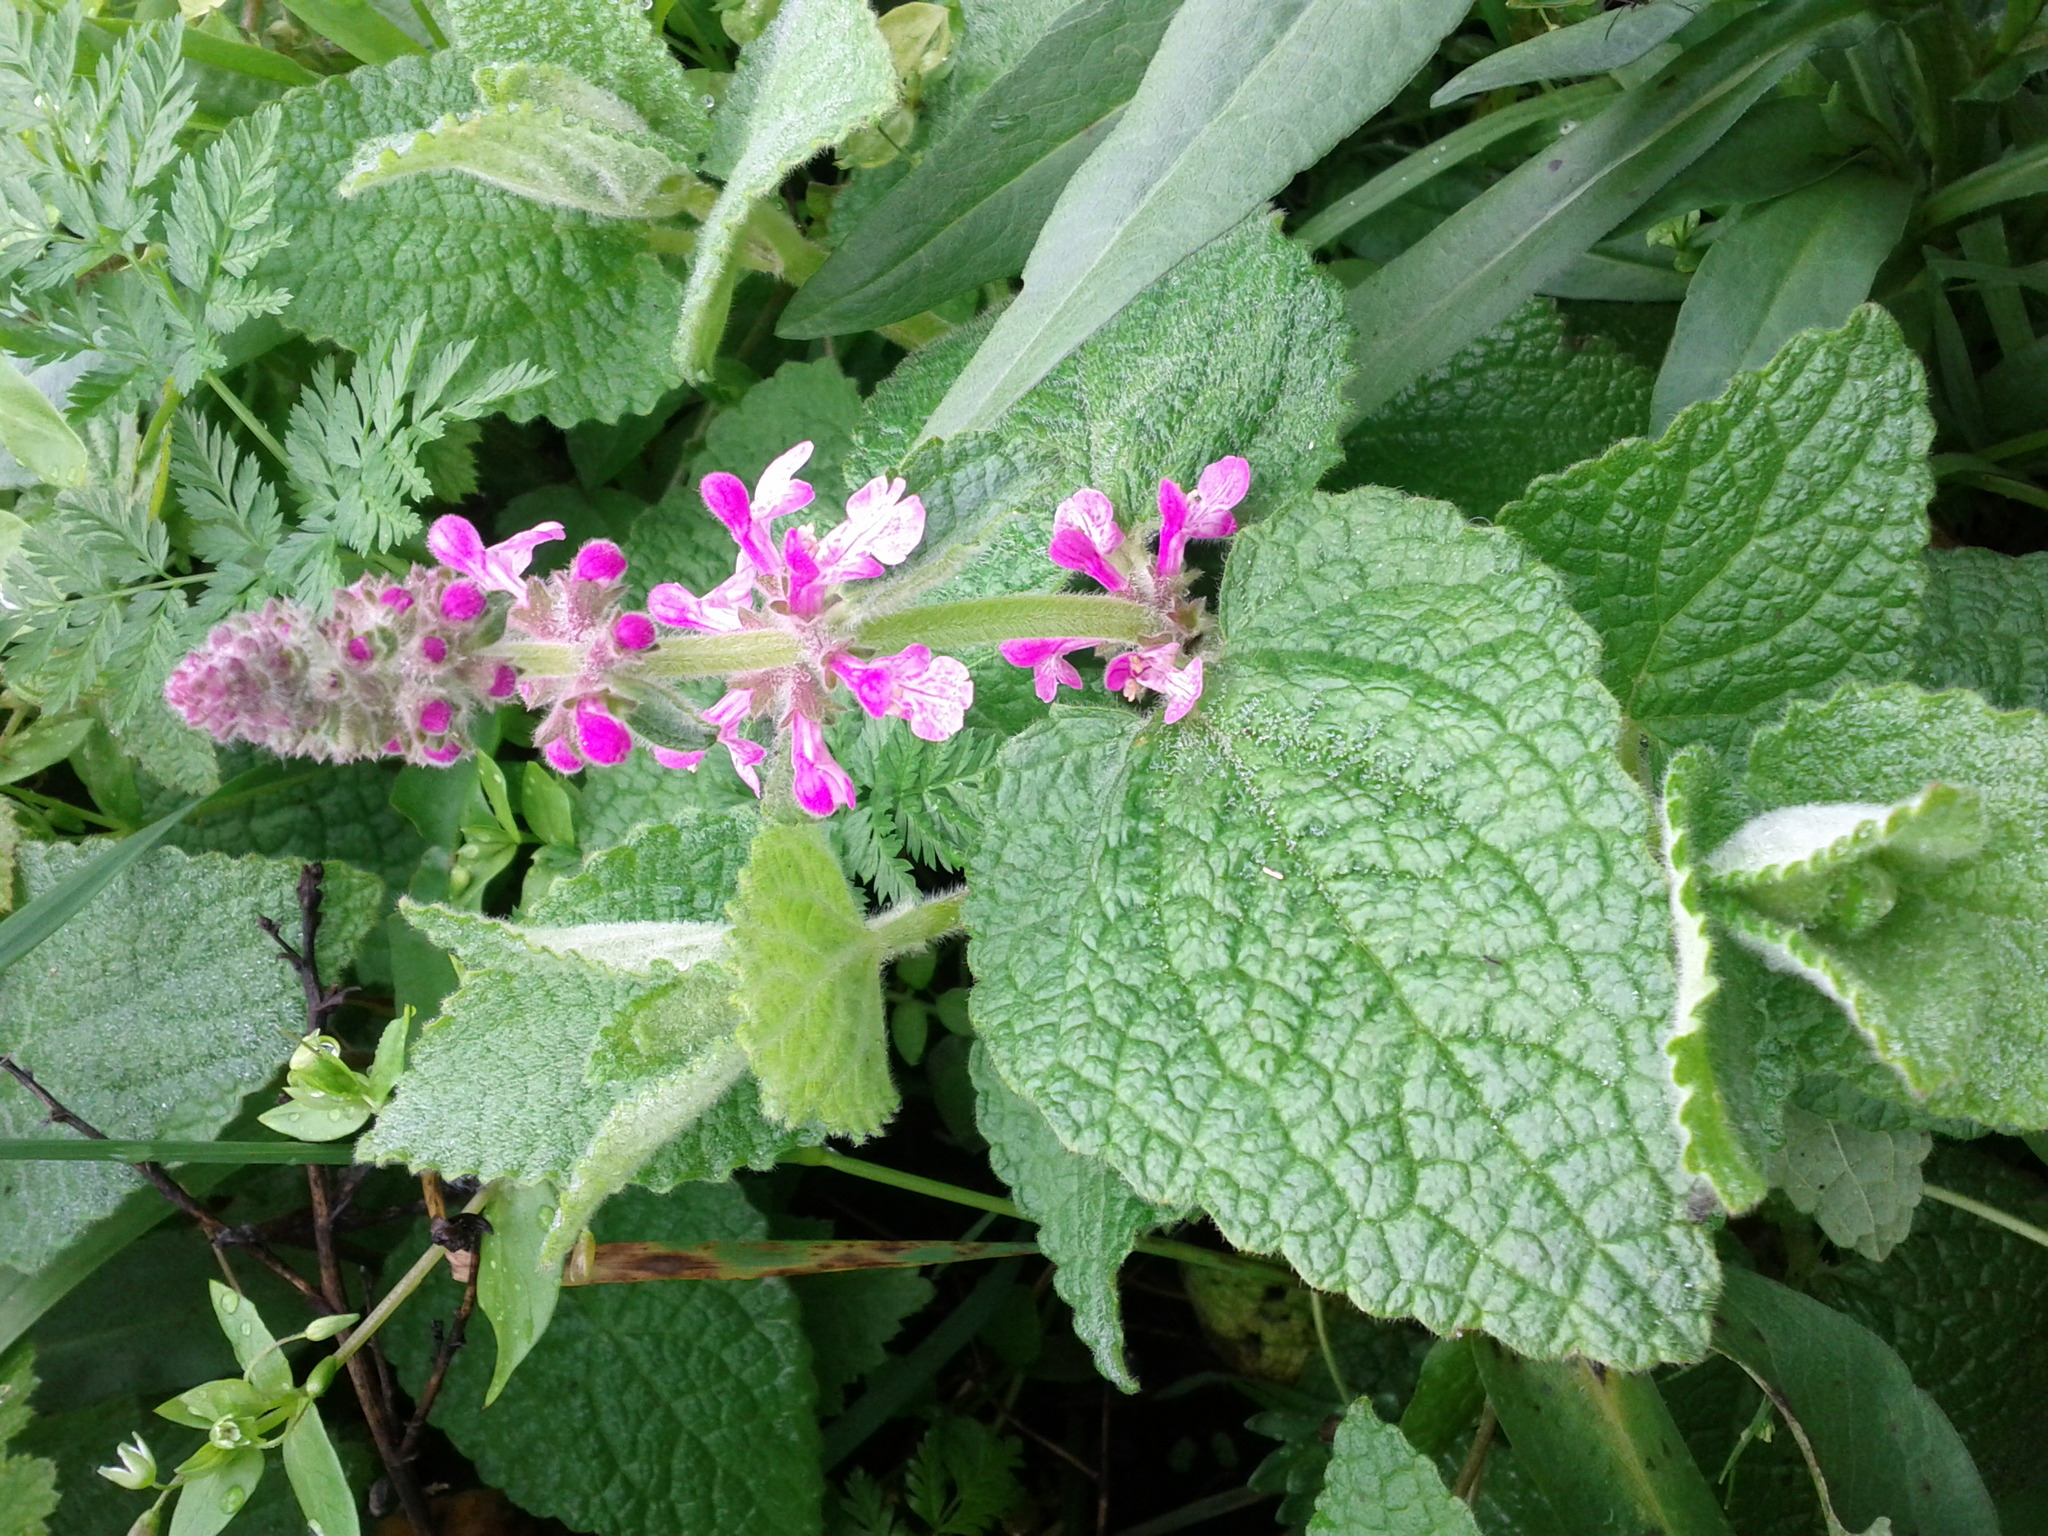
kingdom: Plantae
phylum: Tracheophyta
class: Magnoliopsida
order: Lamiales
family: Lamiaceae
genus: Stachys
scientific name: Stachys bullata
